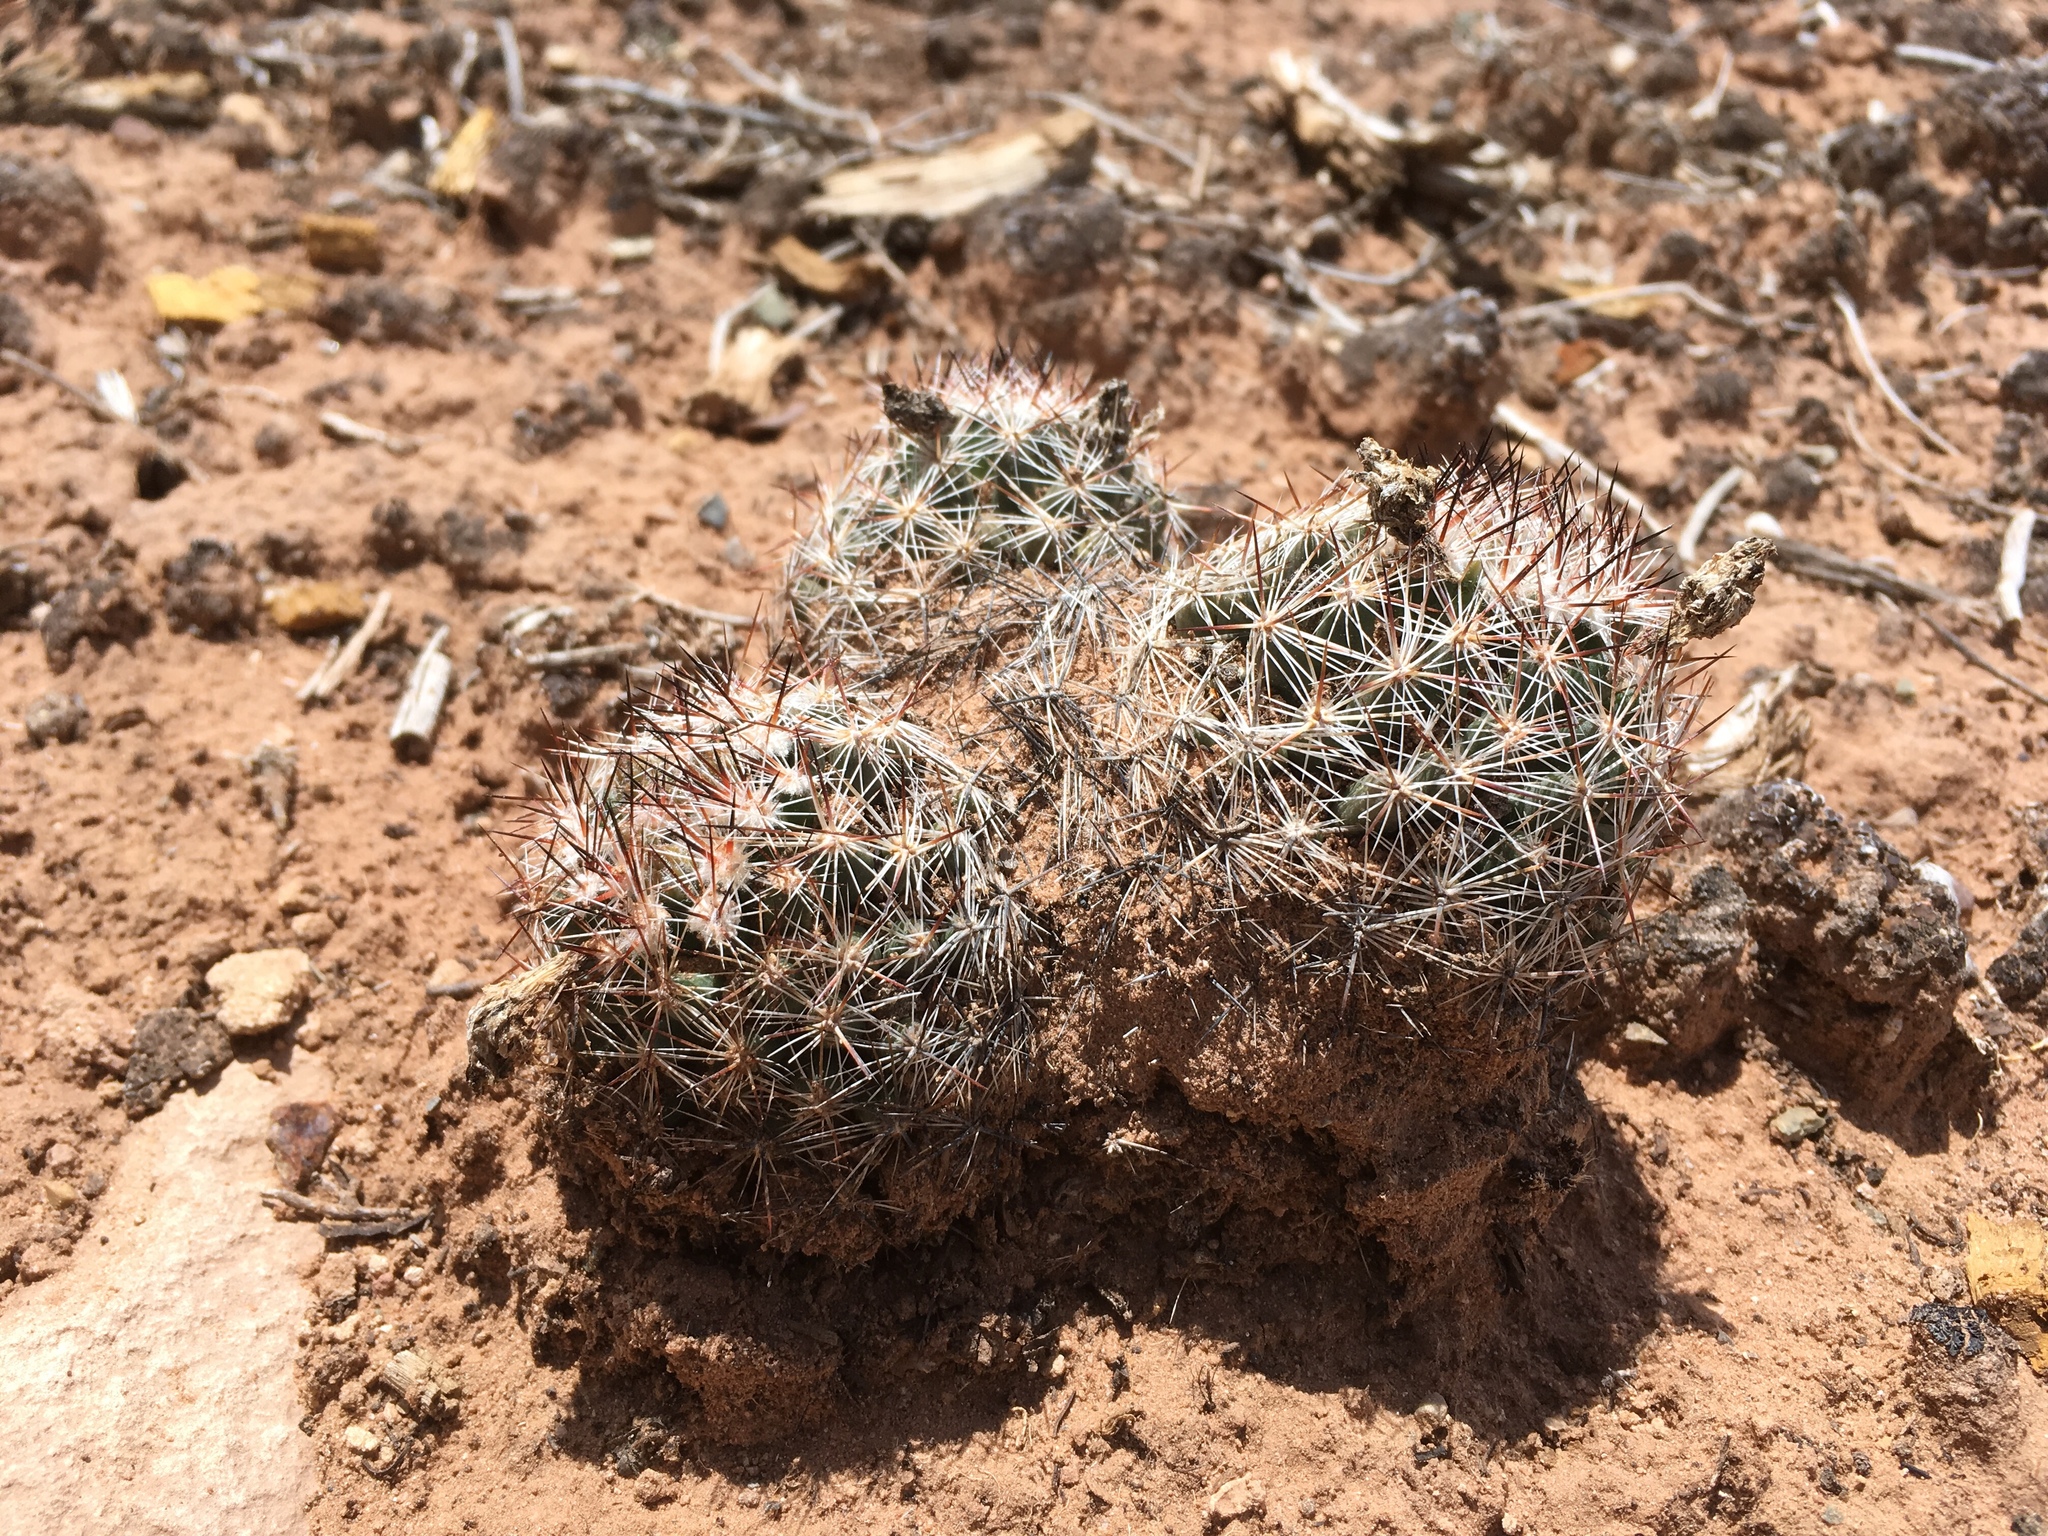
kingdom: Plantae
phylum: Tracheophyta
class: Magnoliopsida
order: Caryophyllales
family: Cactaceae
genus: Pelecyphora
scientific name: Pelecyphora vivipara
